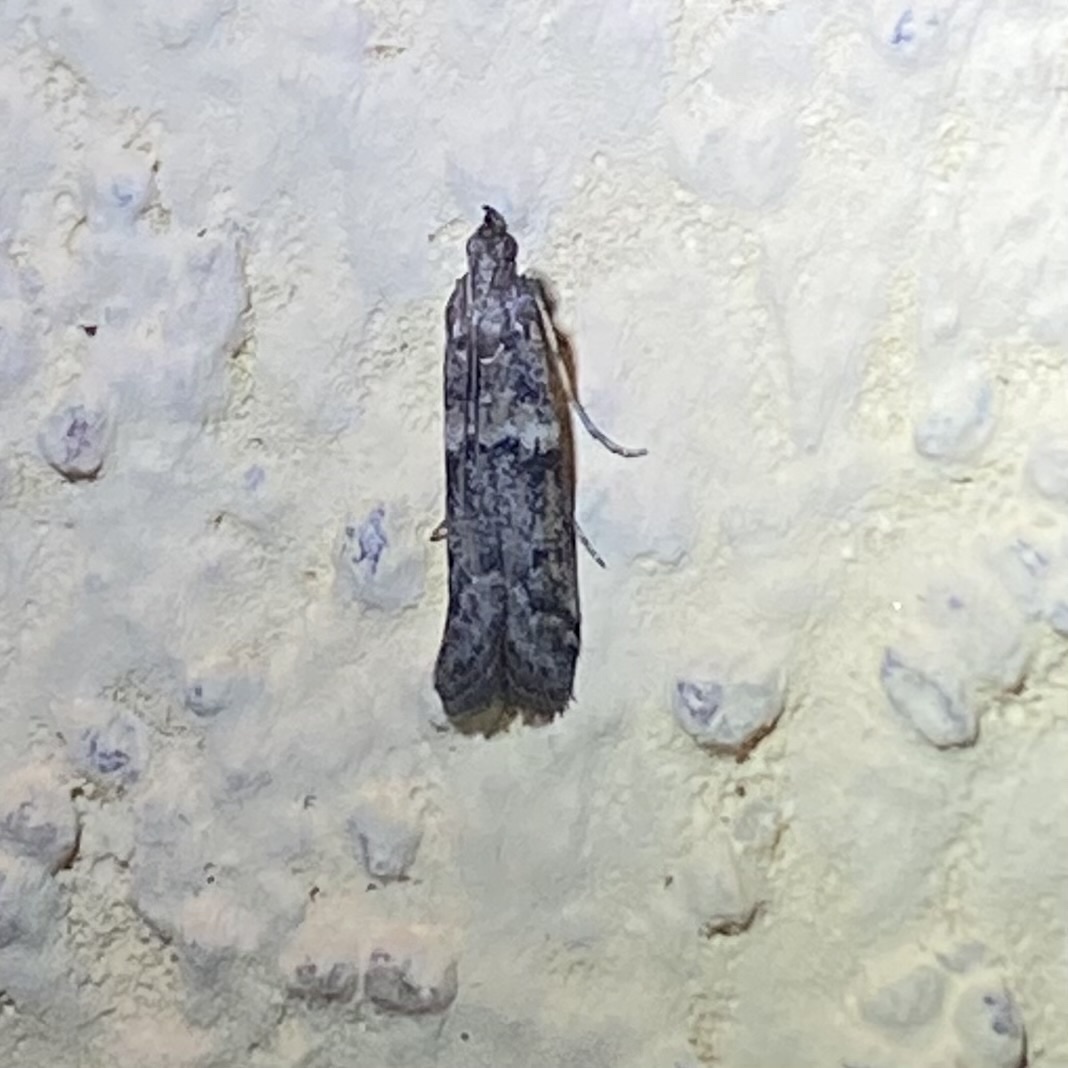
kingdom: Animalia
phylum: Arthropoda
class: Insecta
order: Lepidoptera
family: Pyralidae
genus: Ephestiodes
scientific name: Ephestiodes gilvescentella
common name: Moth
